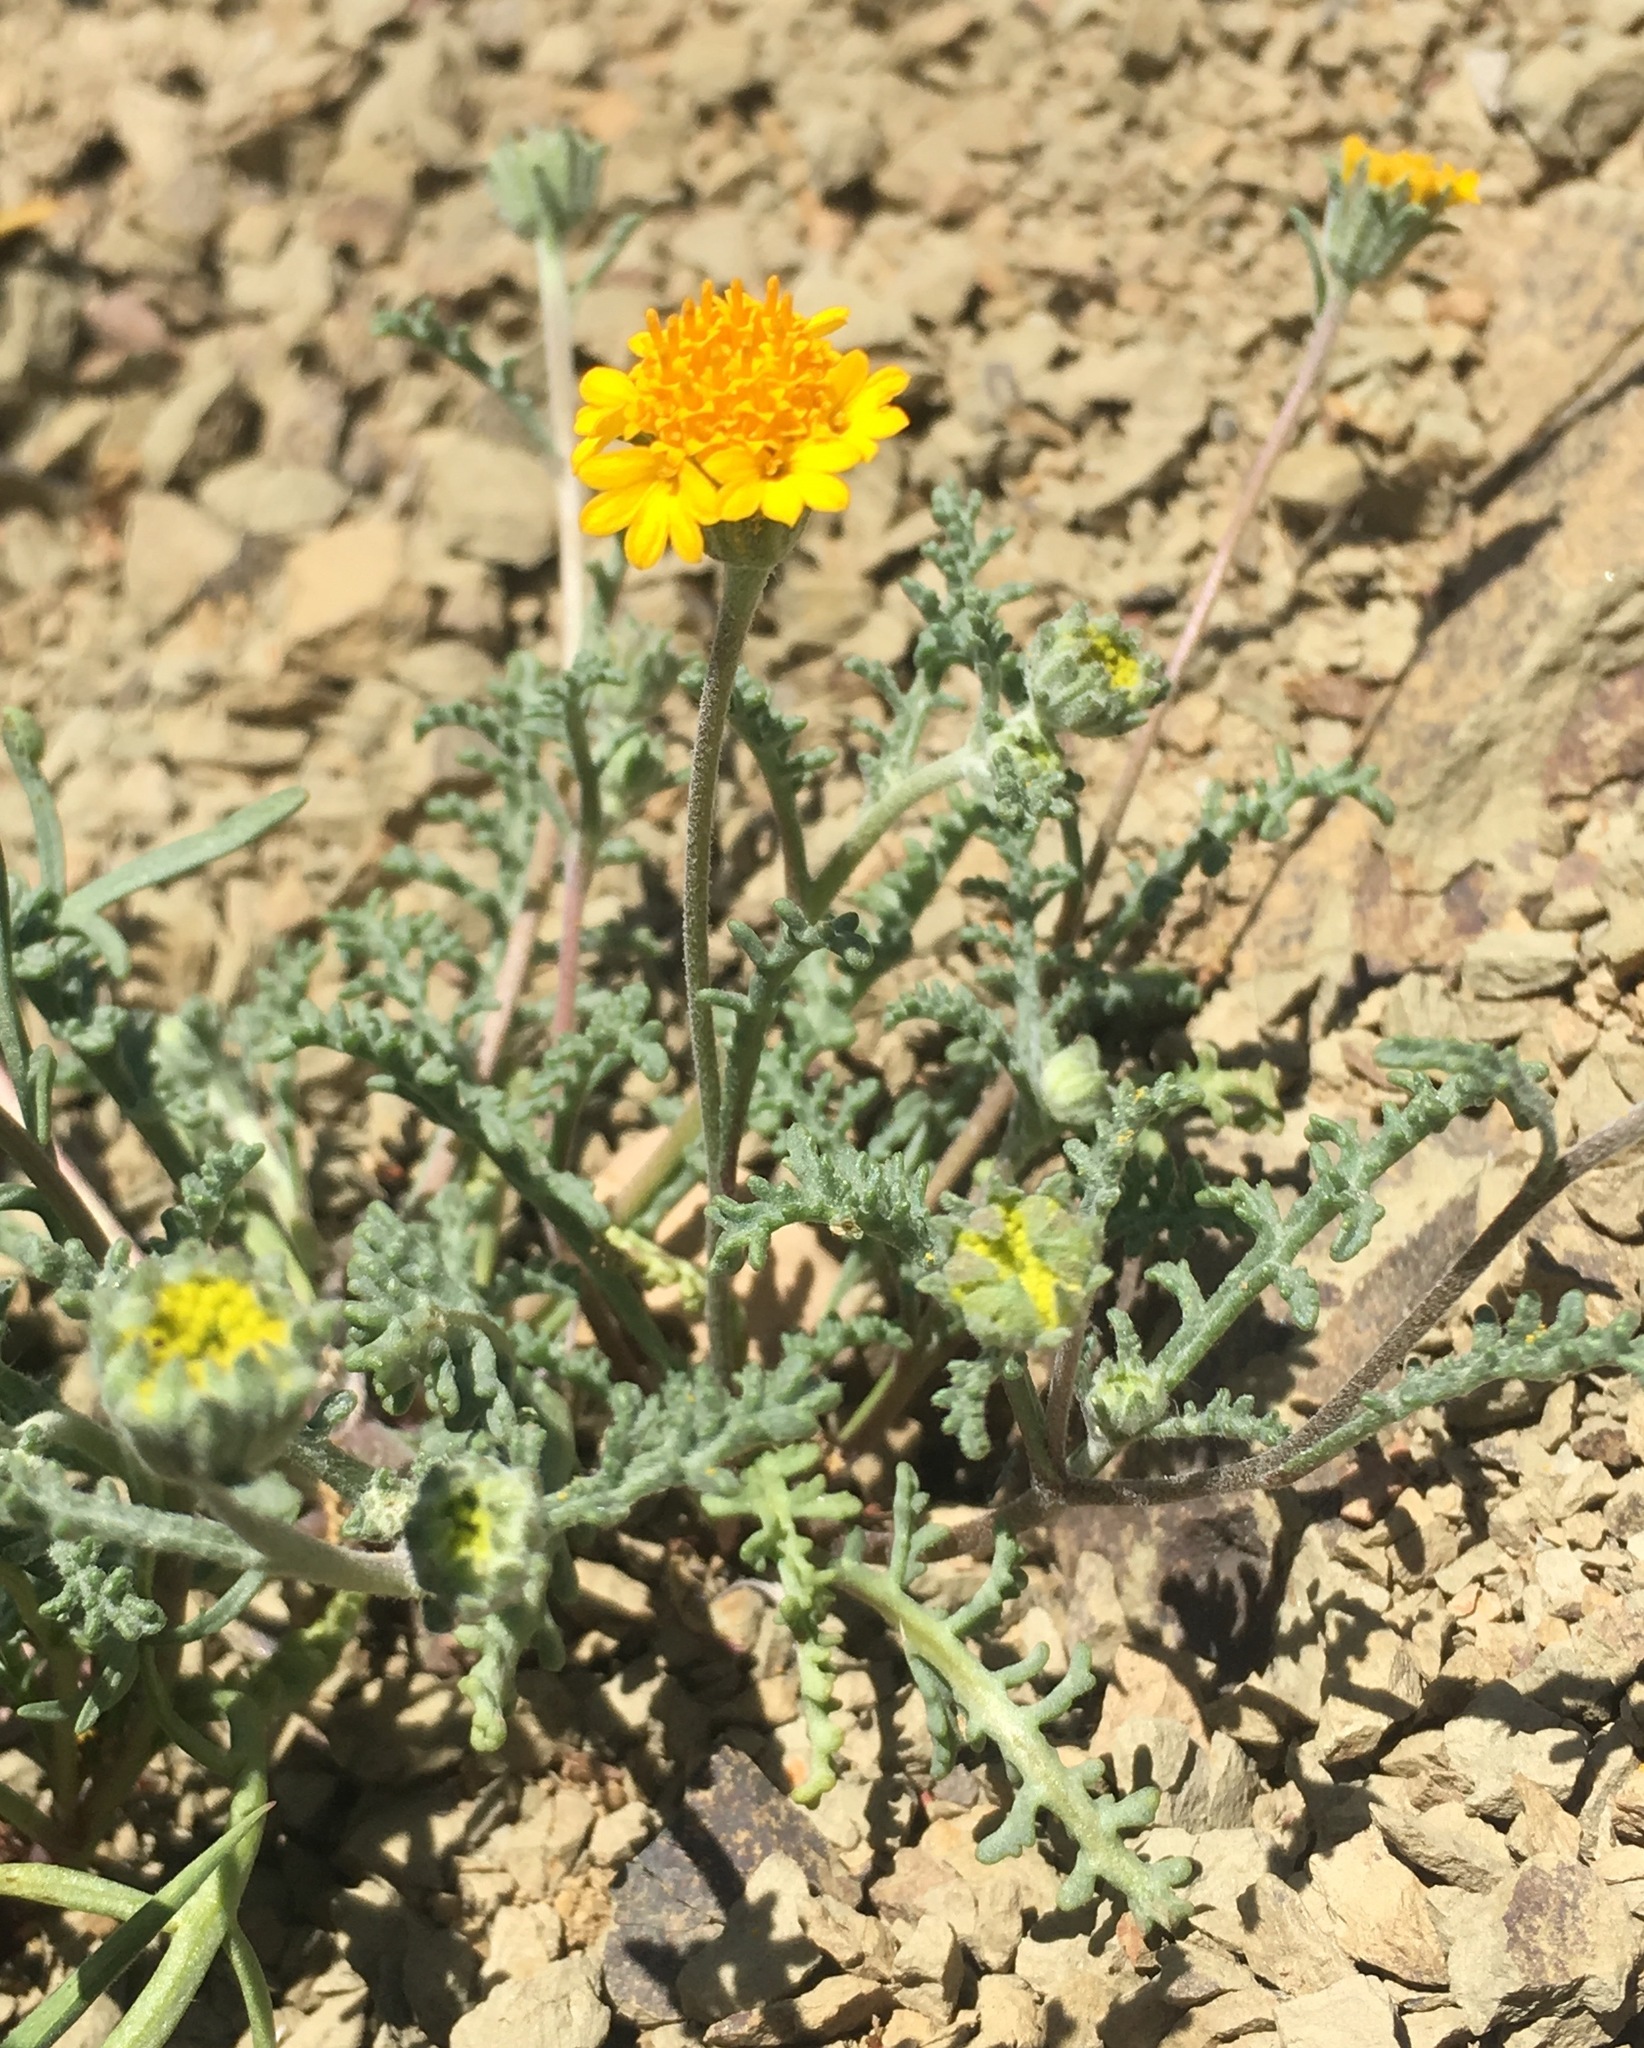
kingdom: Plantae
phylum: Tracheophyta
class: Magnoliopsida
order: Asterales
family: Asteraceae
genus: Chaenactis
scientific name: Chaenactis glabriuscula
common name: Yellow pincushion
